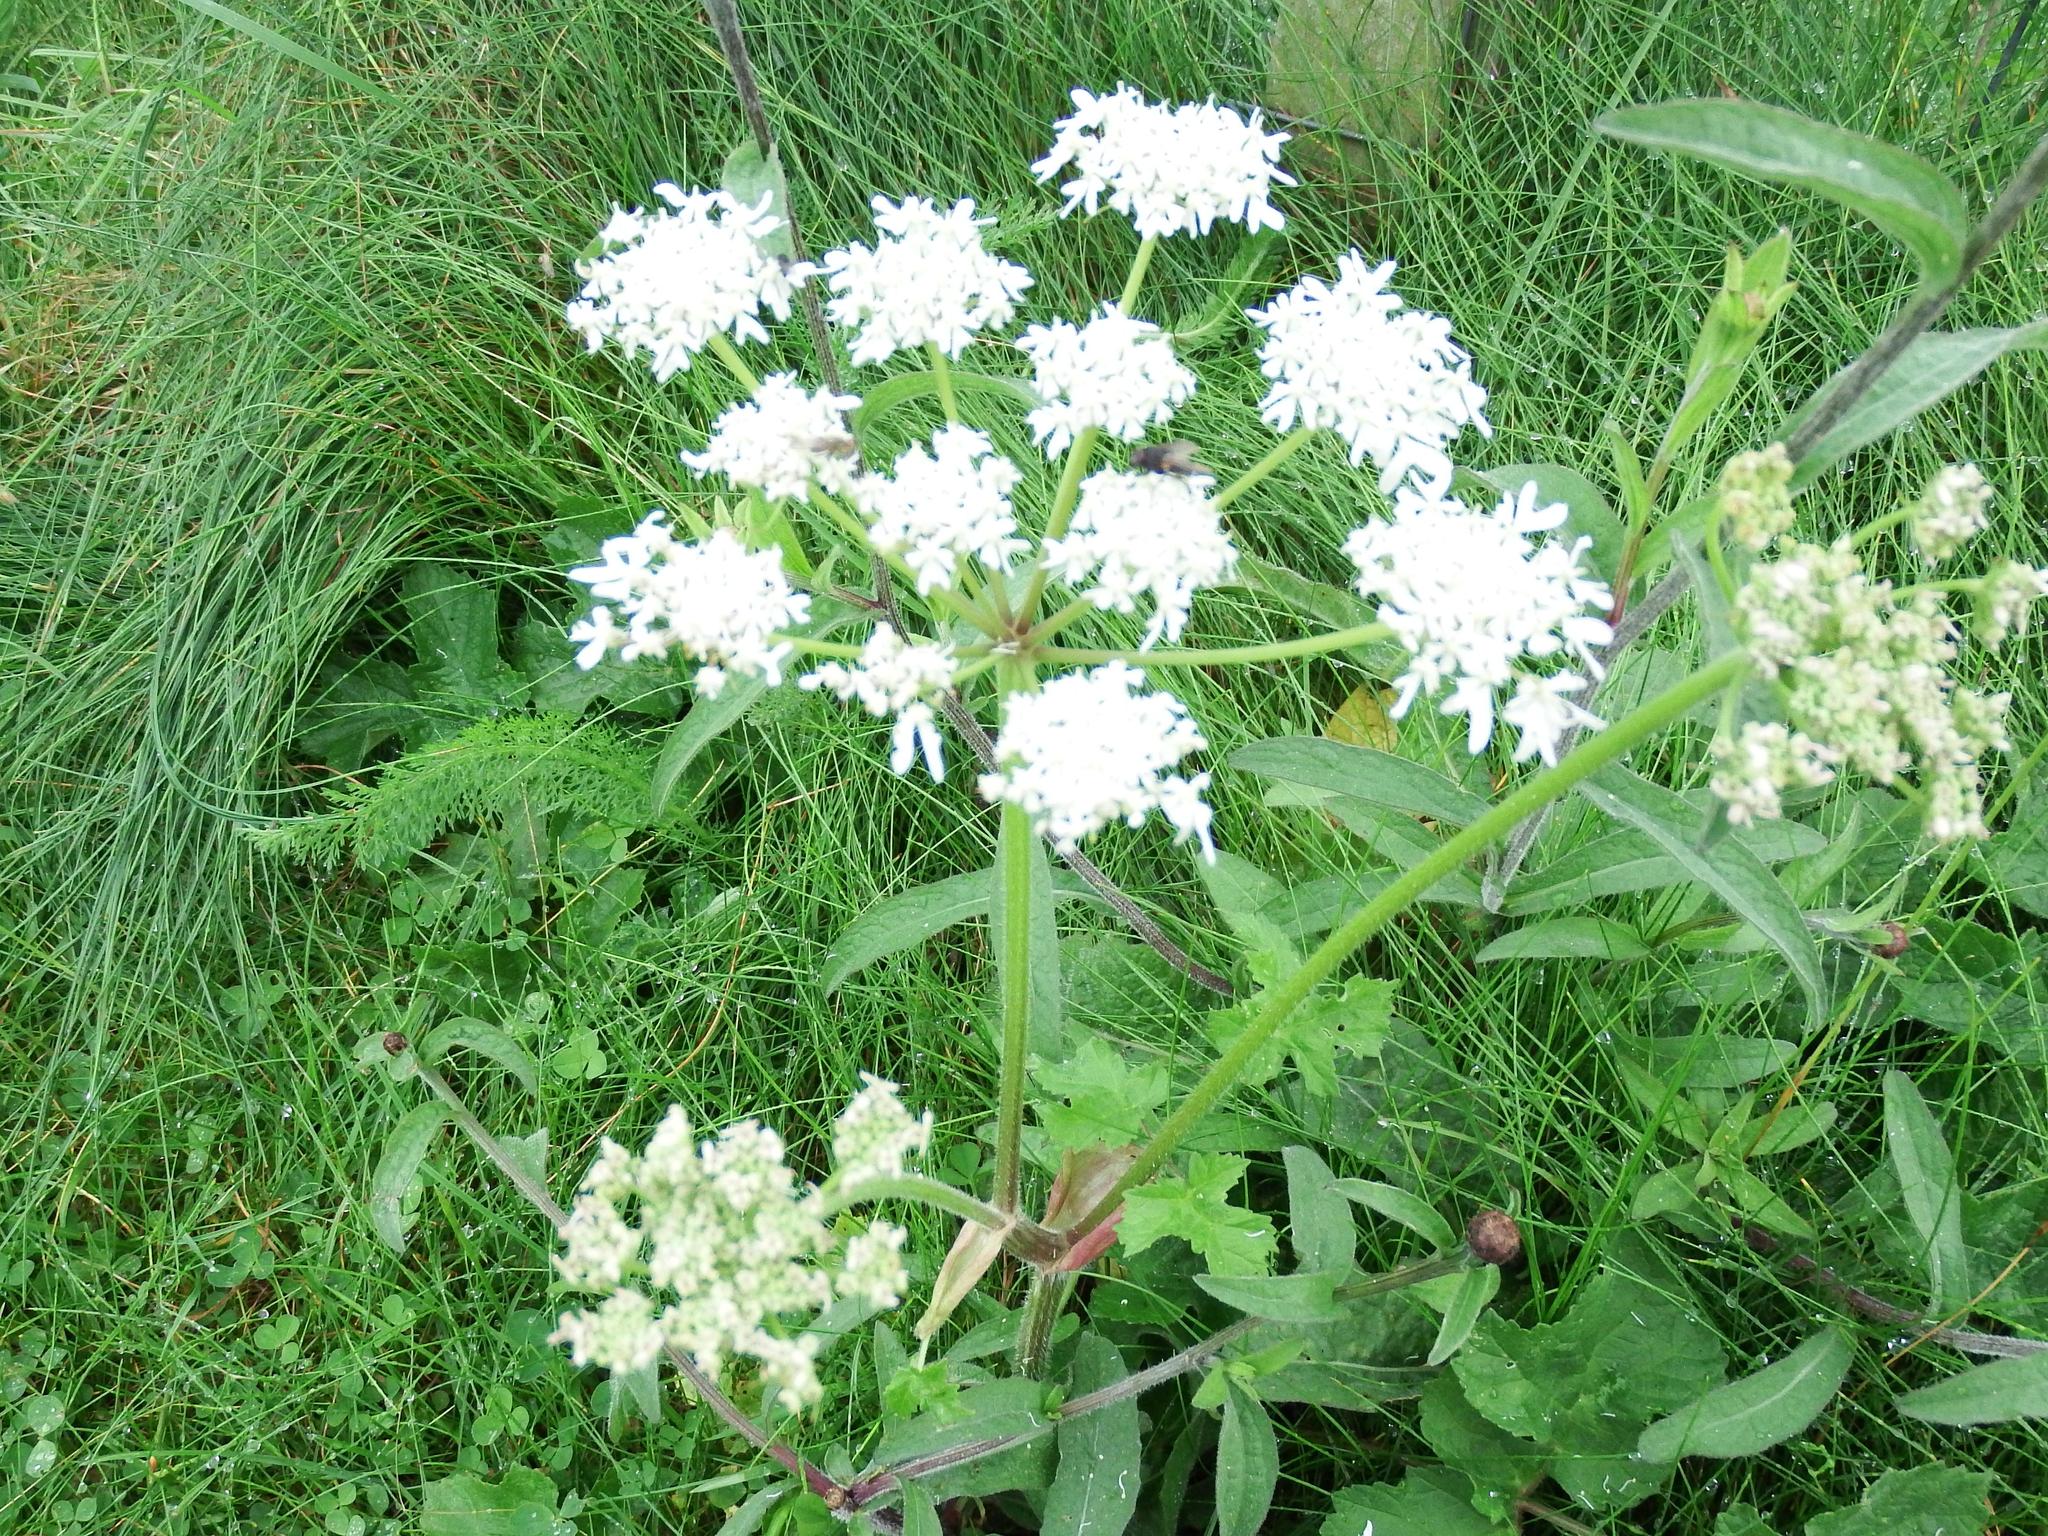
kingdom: Plantae
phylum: Tracheophyta
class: Magnoliopsida
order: Apiales
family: Apiaceae
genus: Heracleum
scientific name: Heracleum sphondylium
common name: Hogweed
